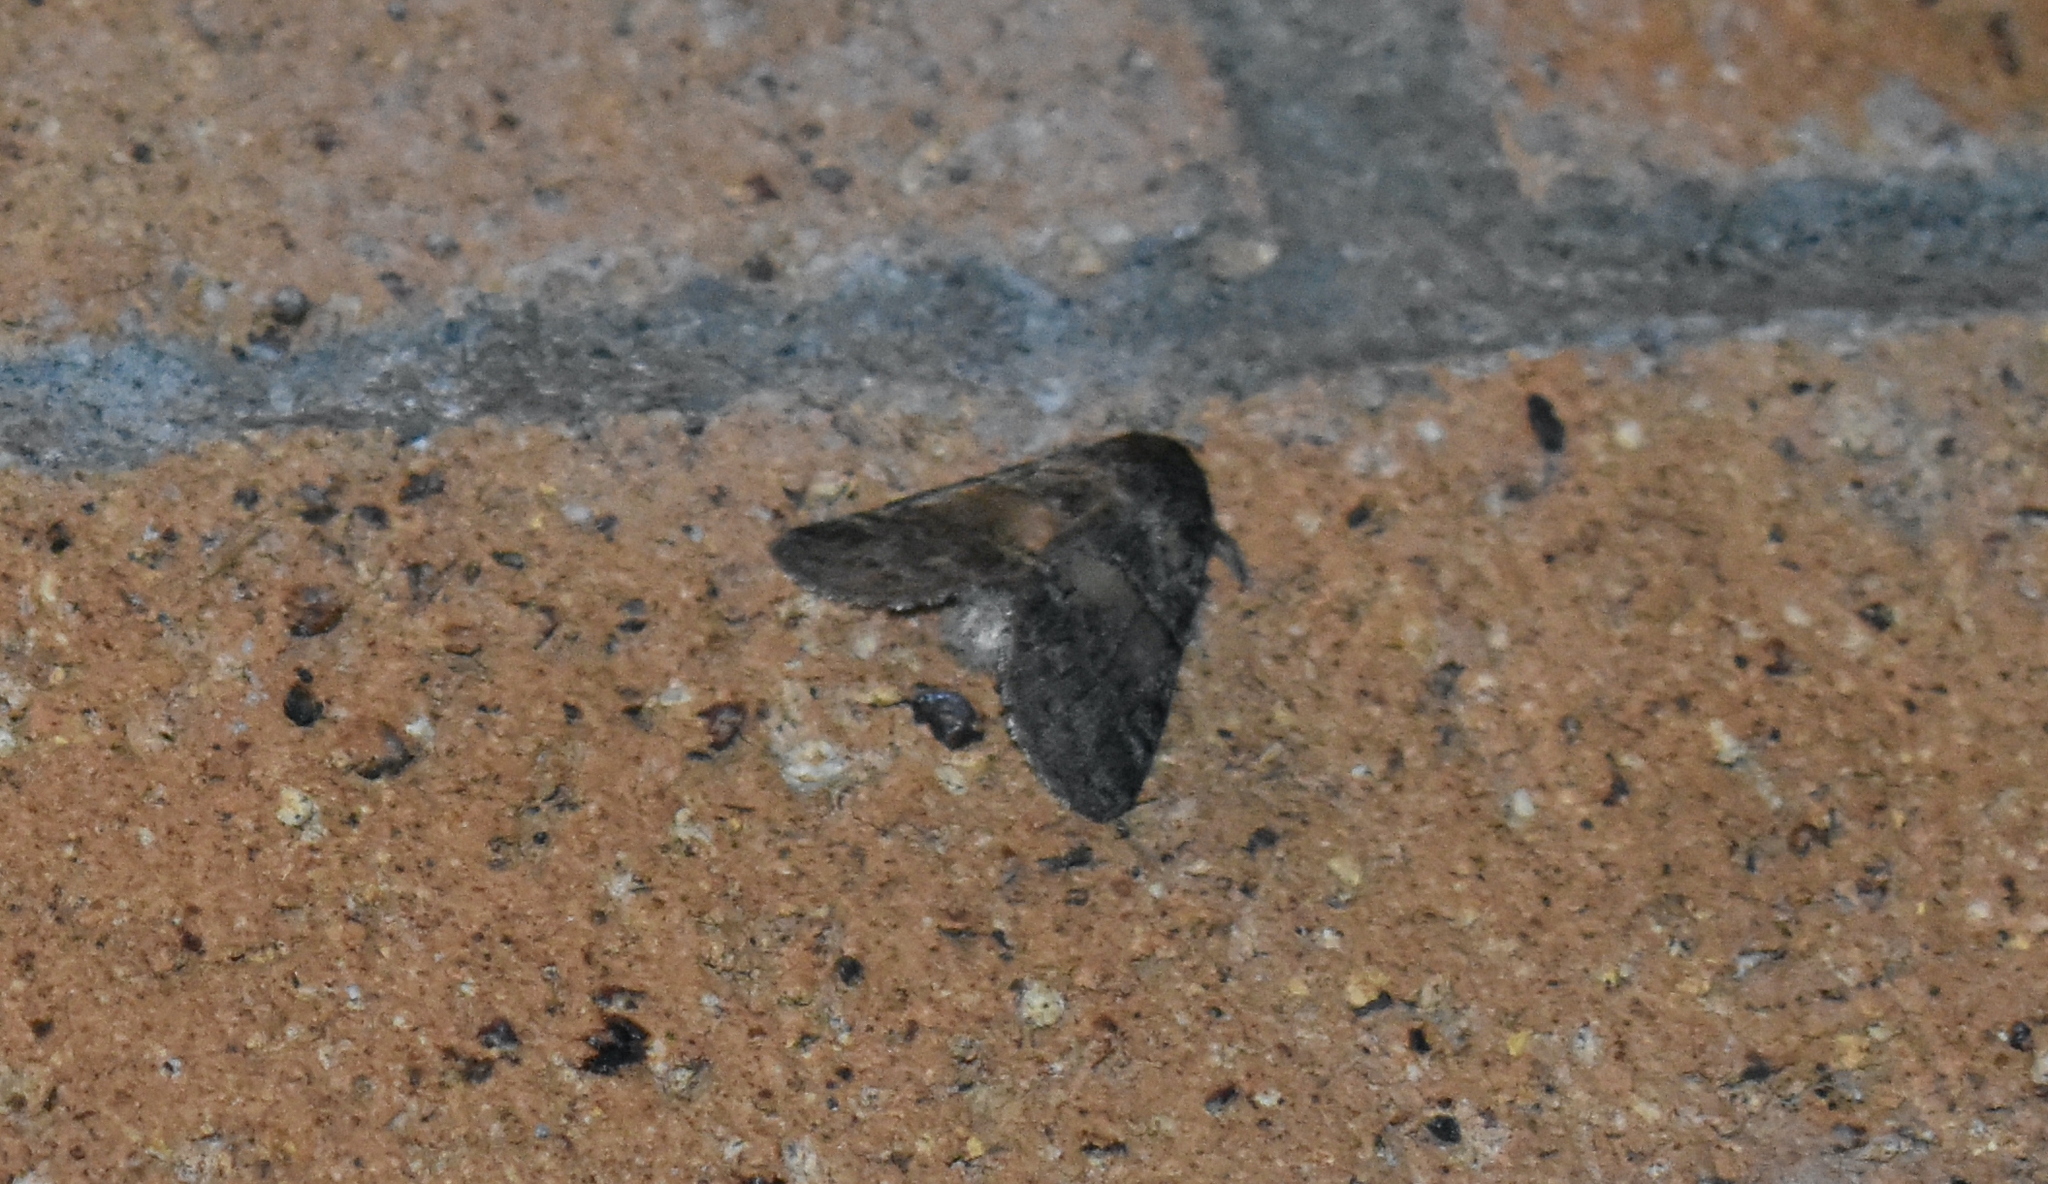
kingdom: Animalia
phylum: Arthropoda
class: Insecta
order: Lepidoptera
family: Notodontidae
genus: Gluphisia
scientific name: Gluphisia septentrionis
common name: Common gluphisia
